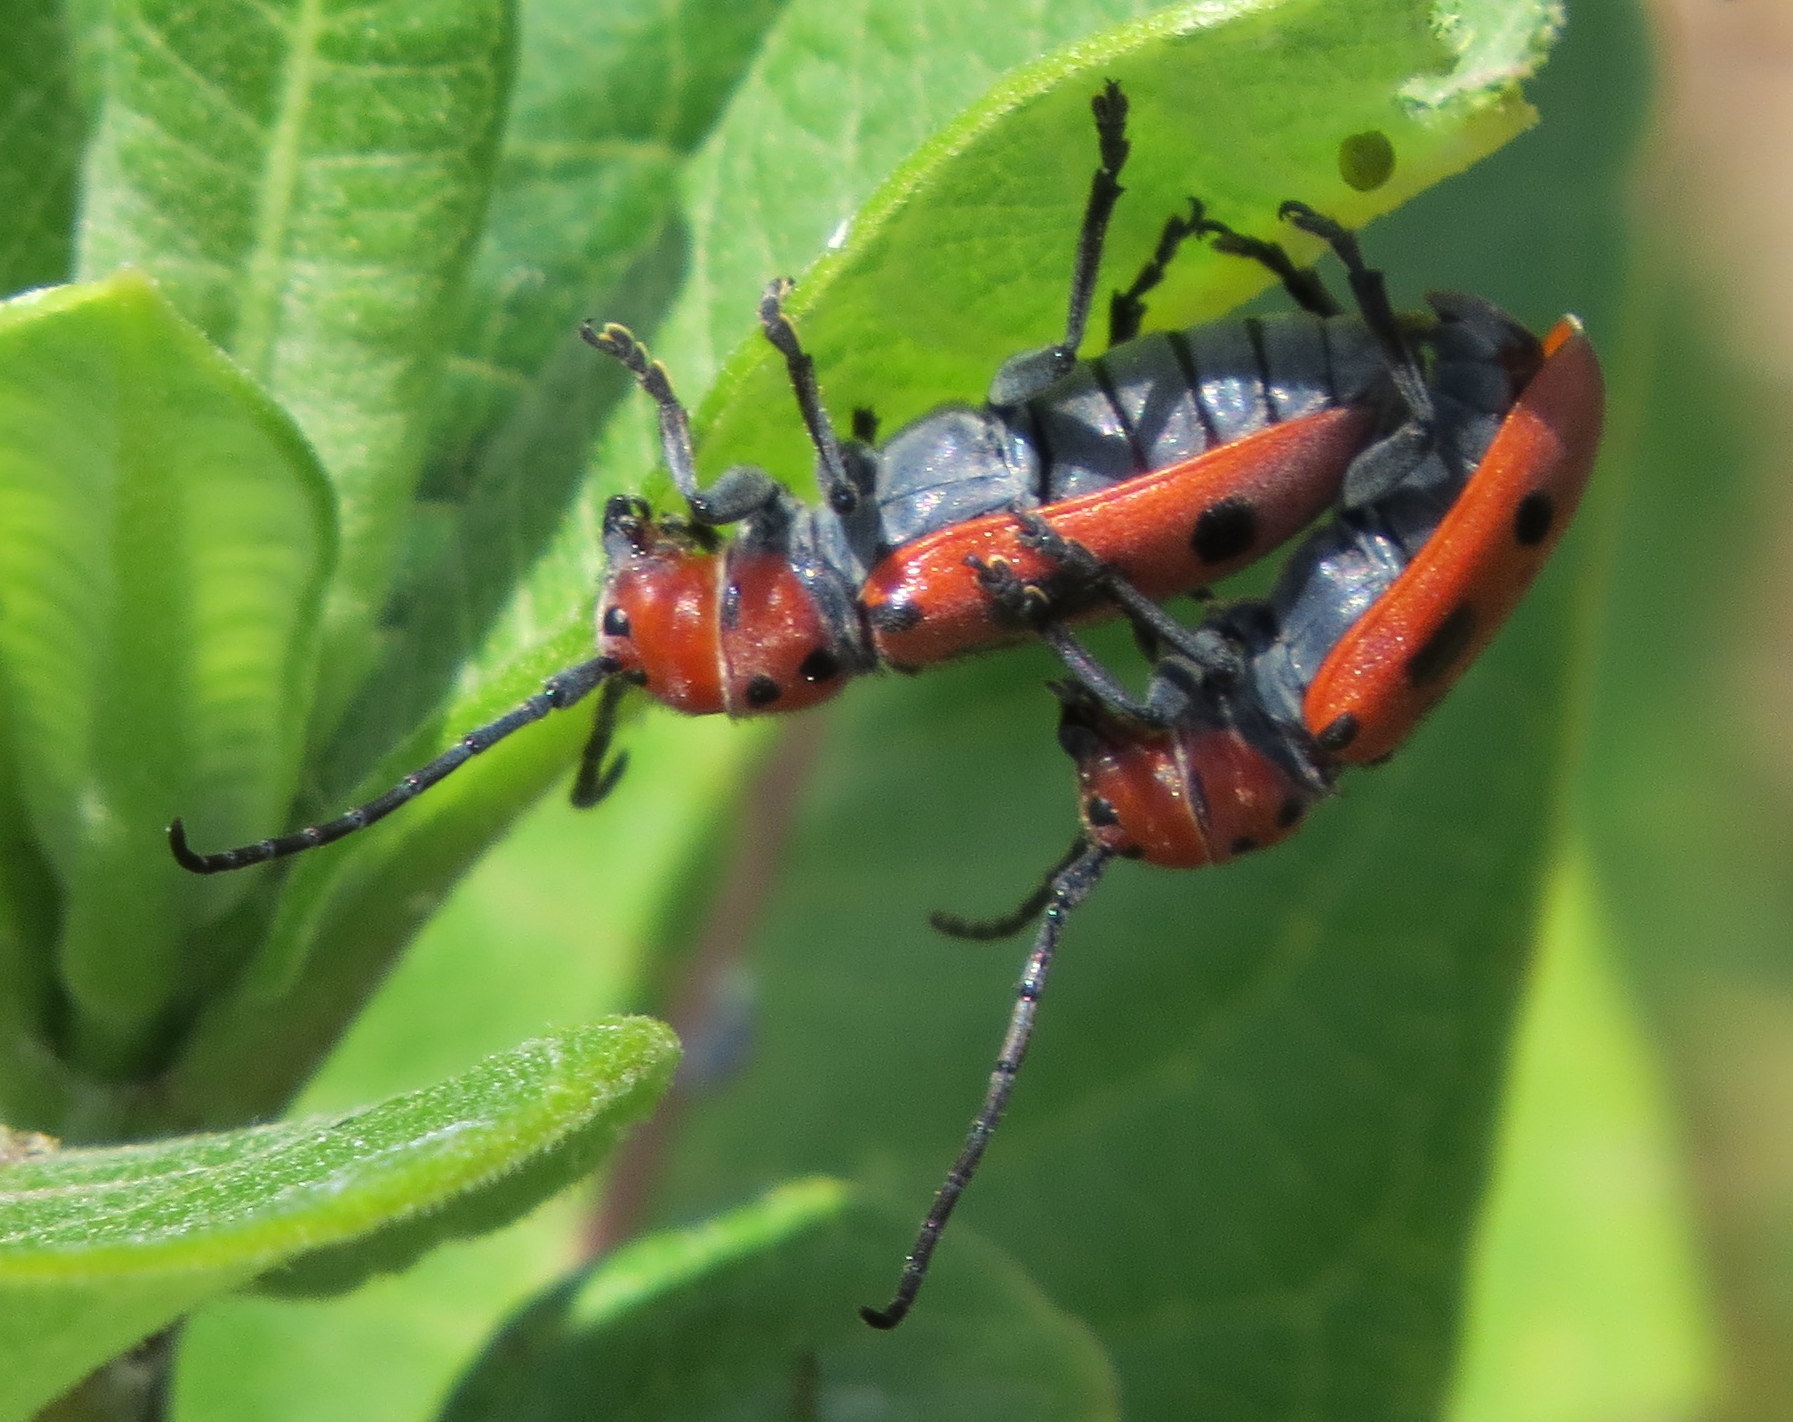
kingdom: Animalia
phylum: Arthropoda
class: Insecta
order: Coleoptera
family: Cerambycidae
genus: Tetraopes
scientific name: Tetraopes tetrophthalmus
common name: Red milkweed beetle
